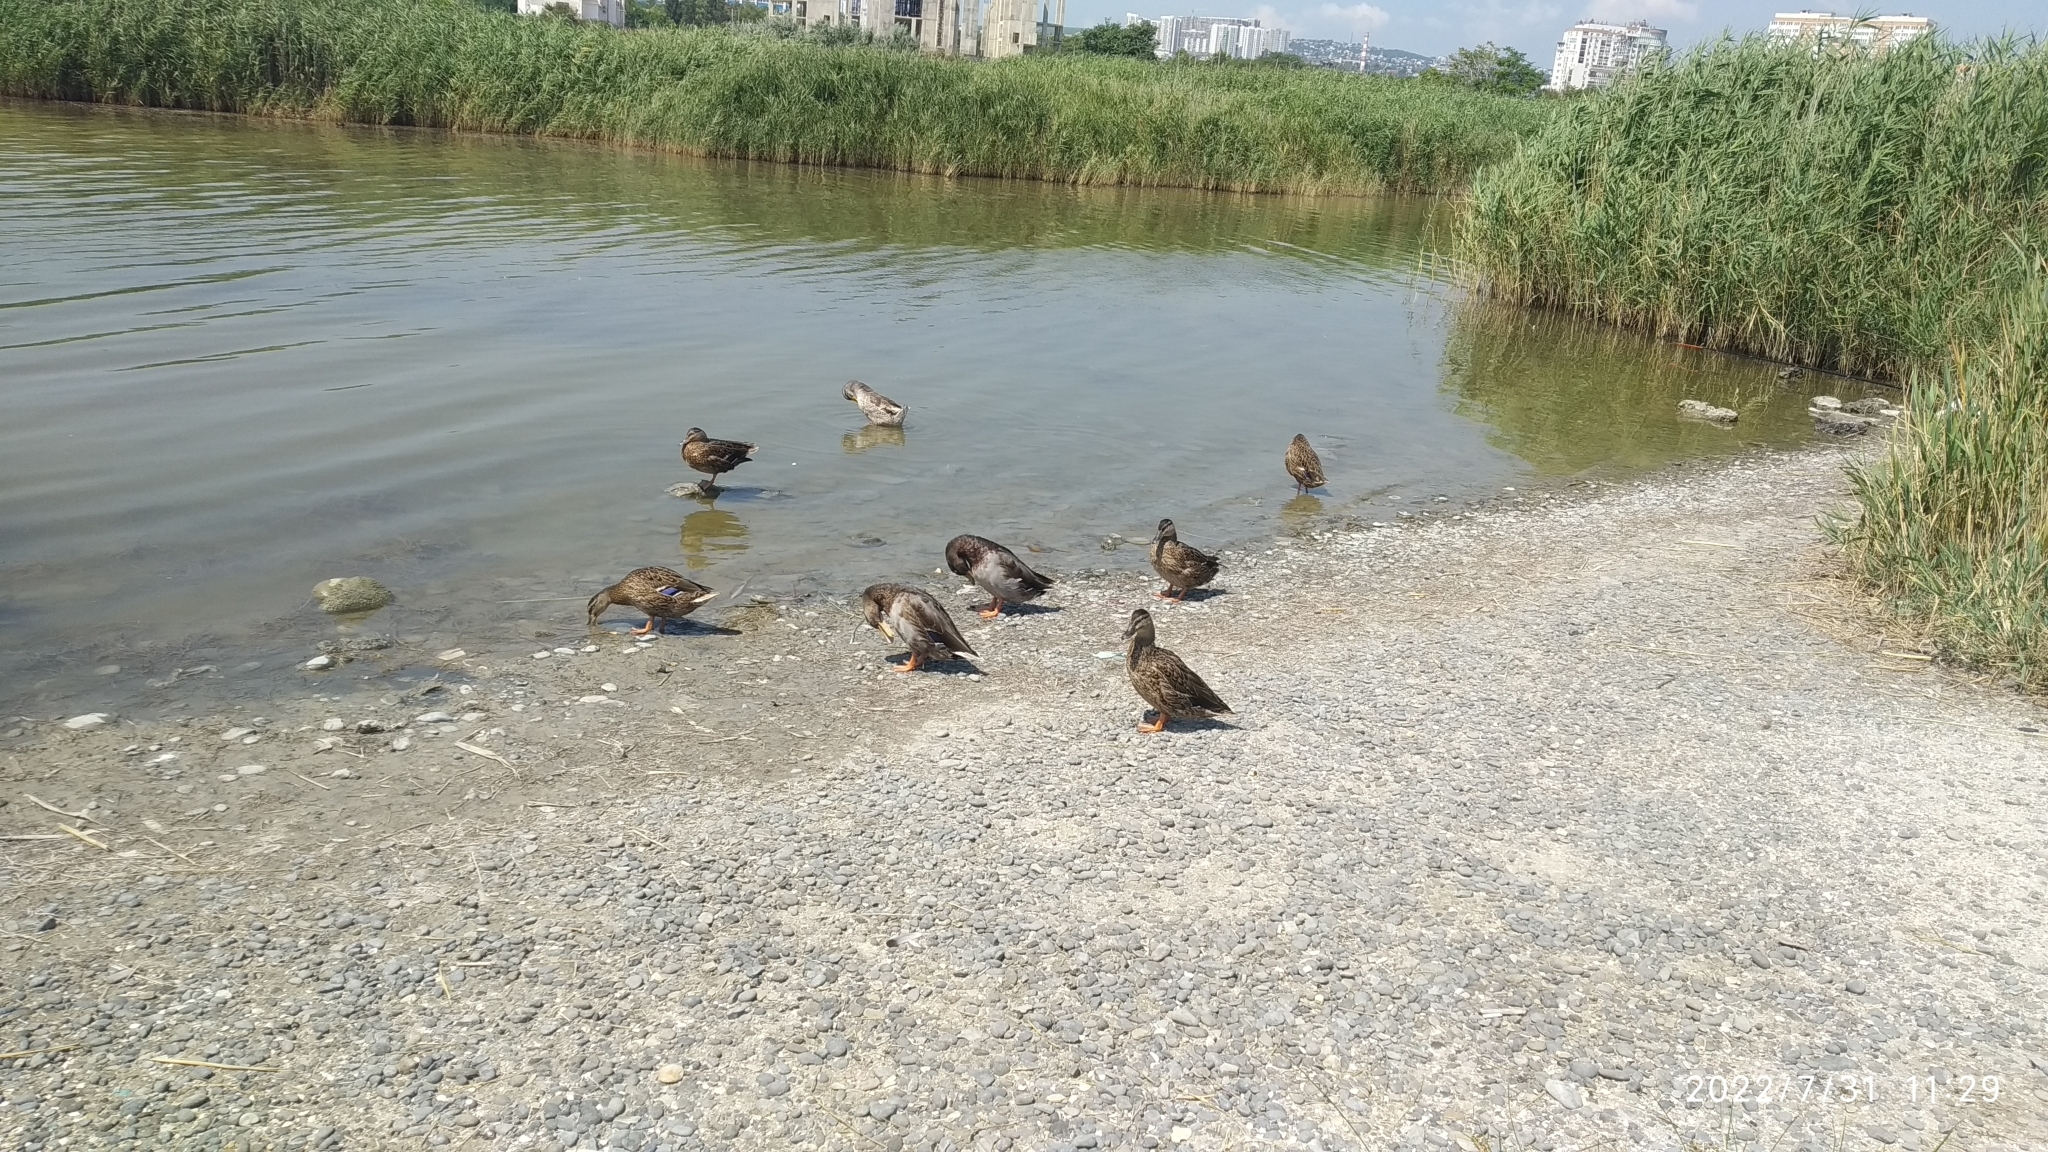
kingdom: Animalia
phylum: Chordata
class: Aves
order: Anseriformes
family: Anatidae
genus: Anas
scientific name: Anas platyrhynchos
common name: Mallard
